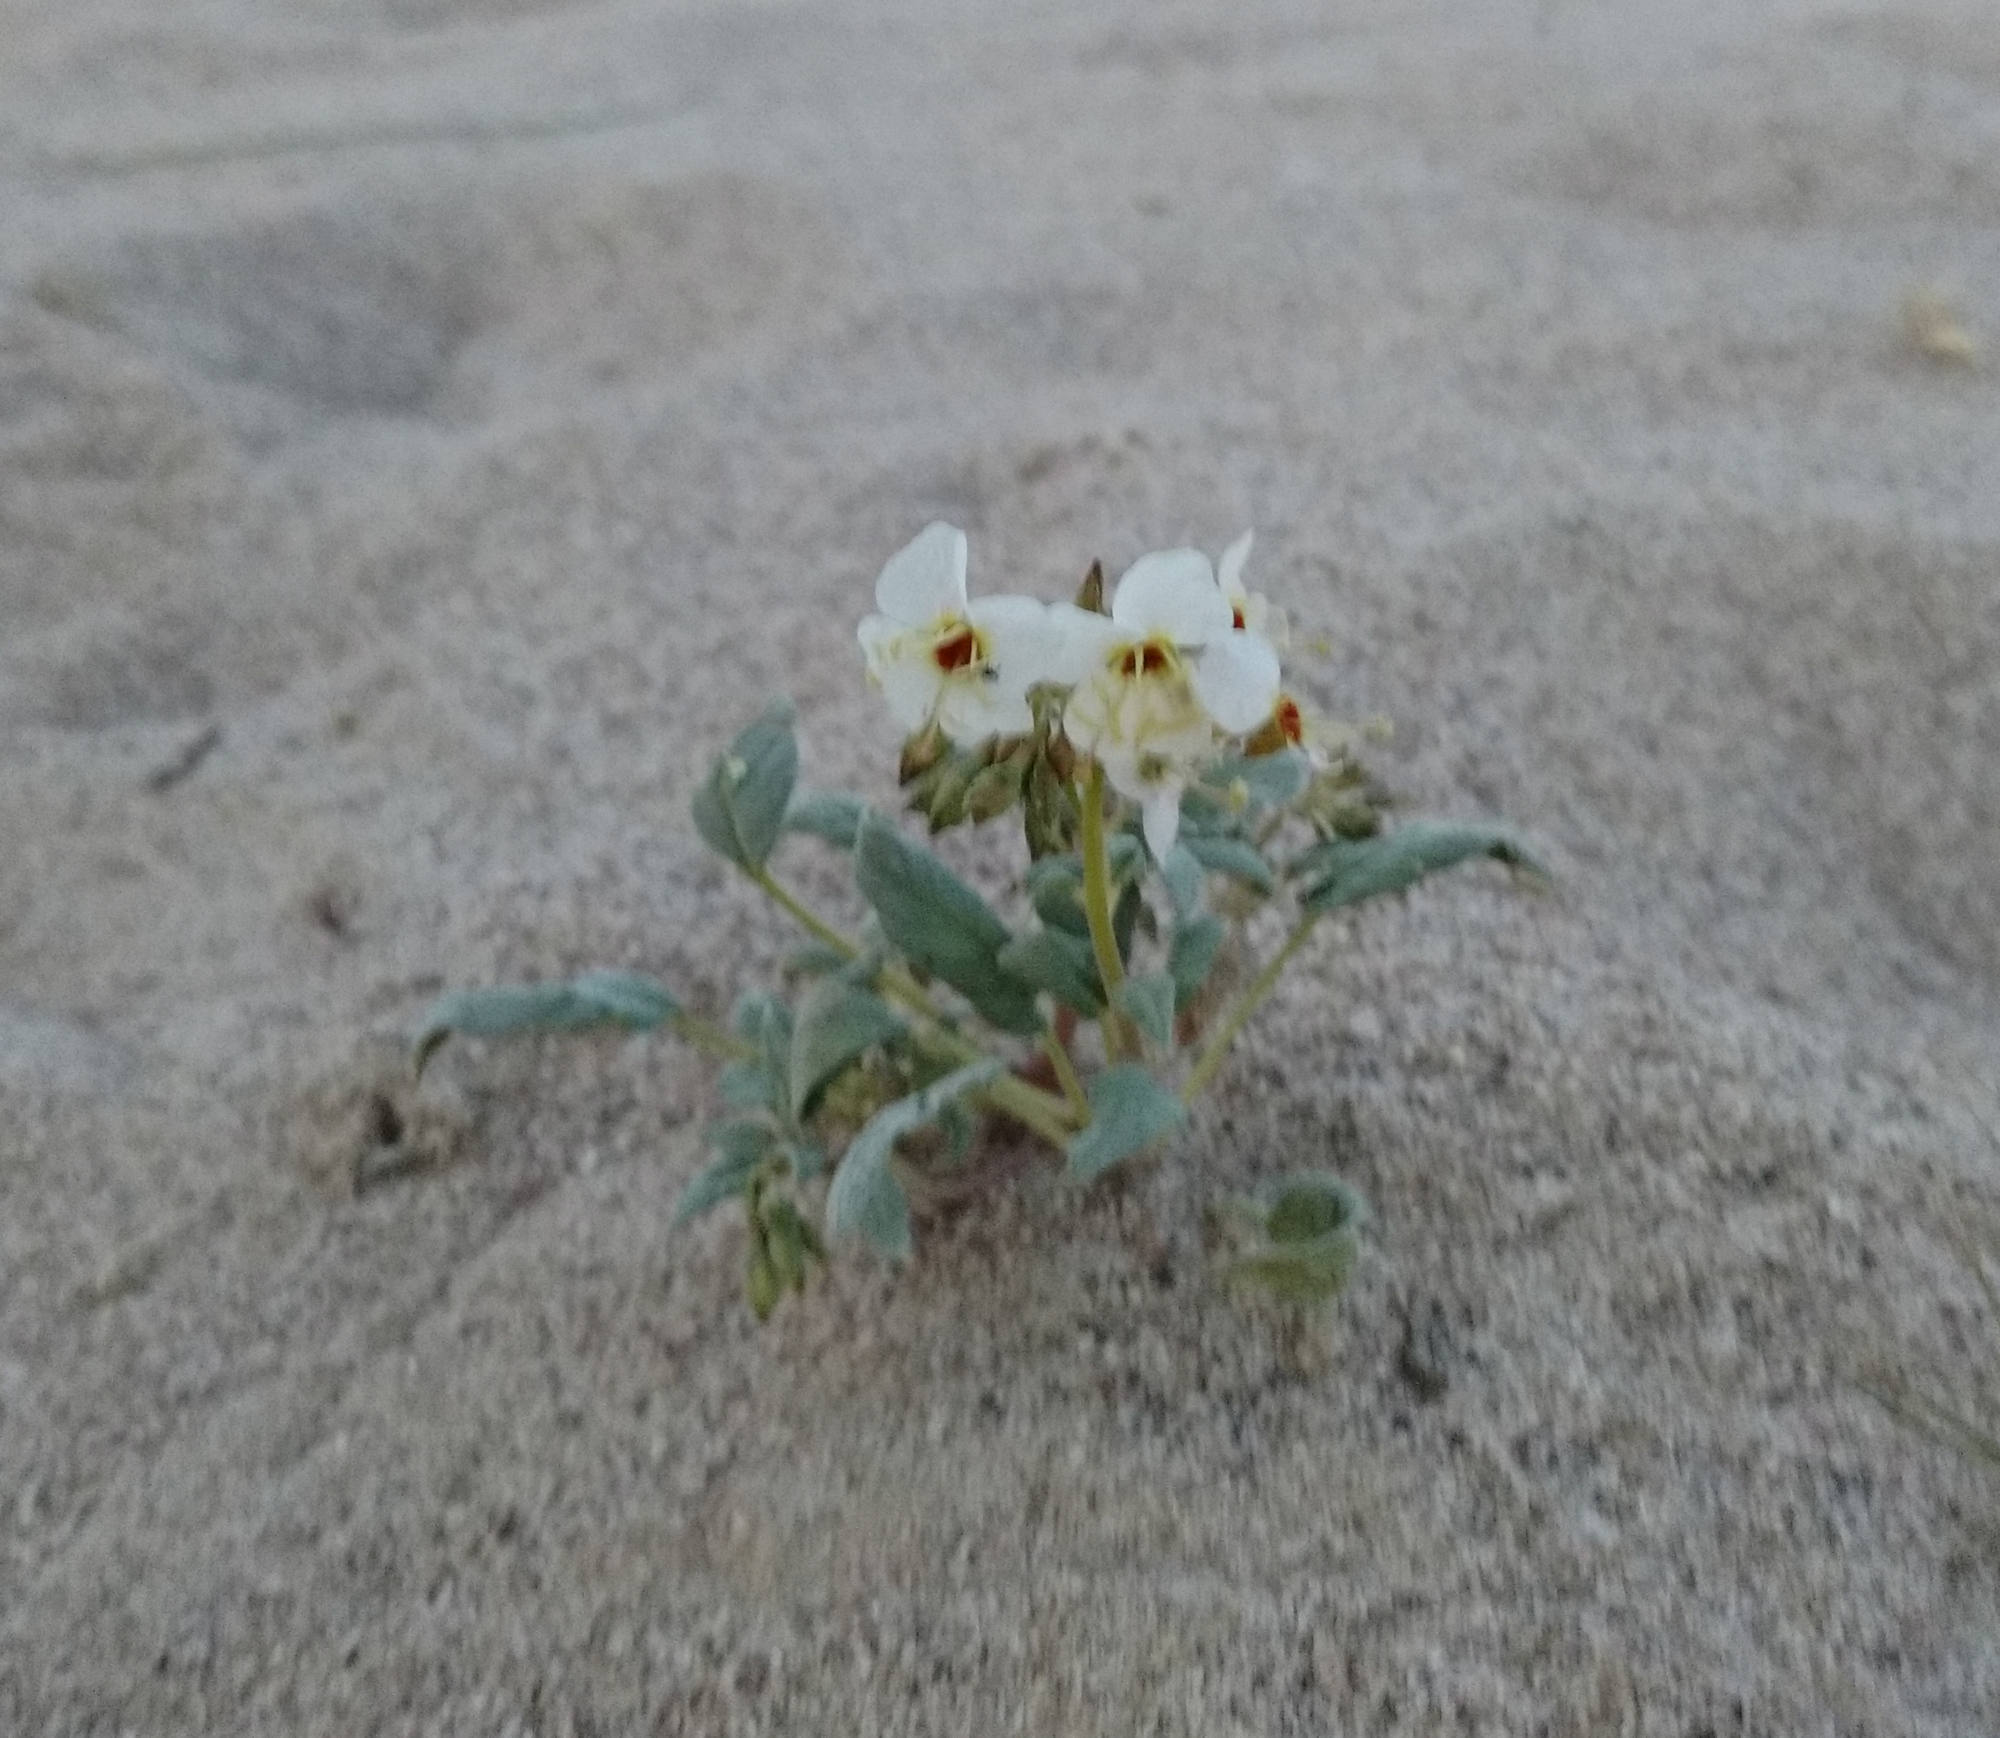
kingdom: Plantae
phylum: Tracheophyta
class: Magnoliopsida
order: Myrtales
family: Onagraceae
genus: Chylismia
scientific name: Chylismia claviformis
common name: Browneyes
